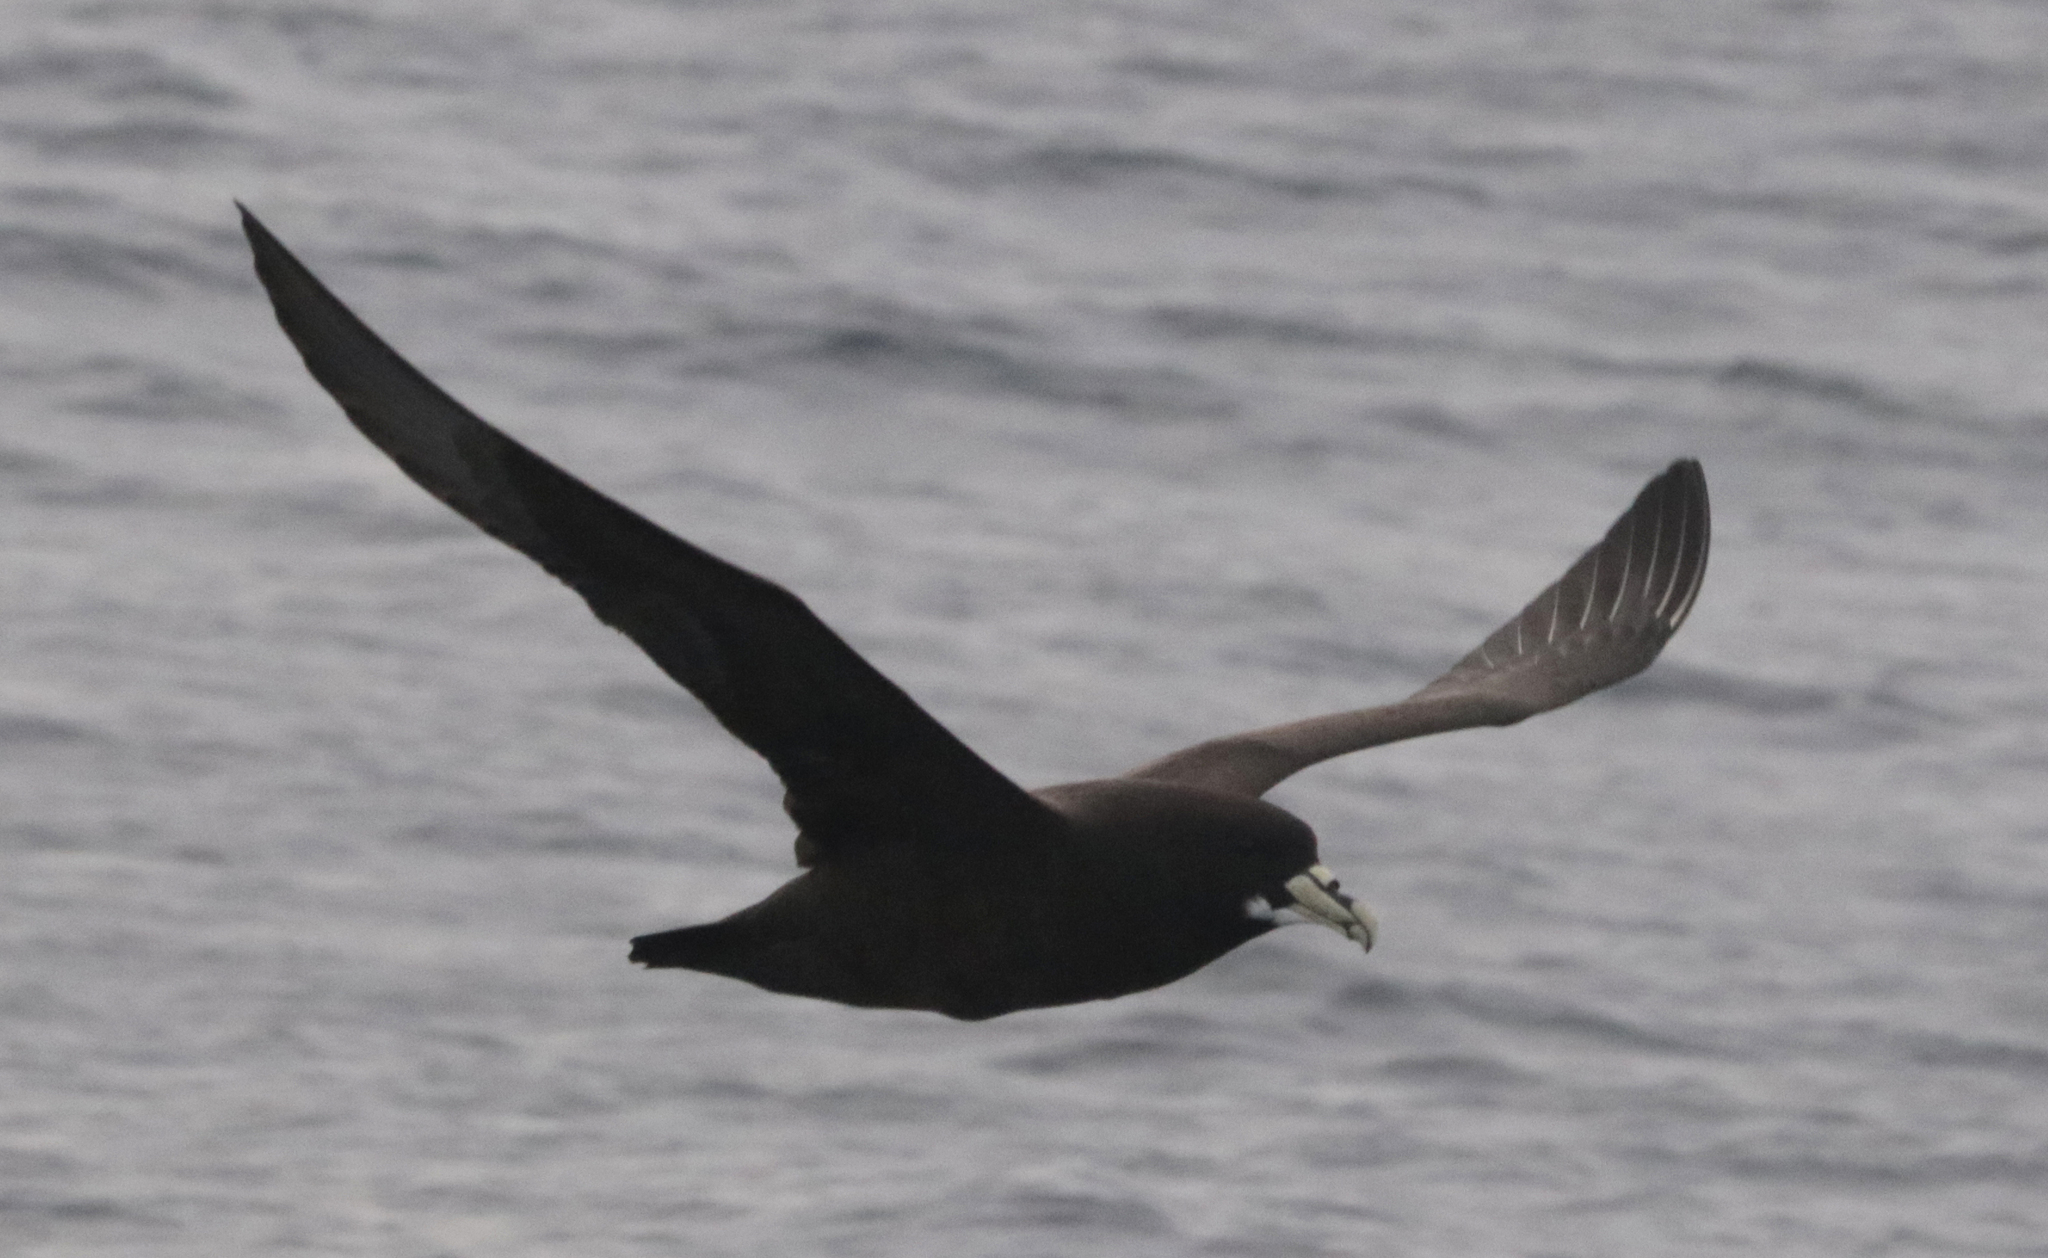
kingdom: Animalia
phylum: Chordata
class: Aves
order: Procellariiformes
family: Procellariidae
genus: Procellaria
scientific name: Procellaria aequinoctialis
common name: White-chinned petrel
